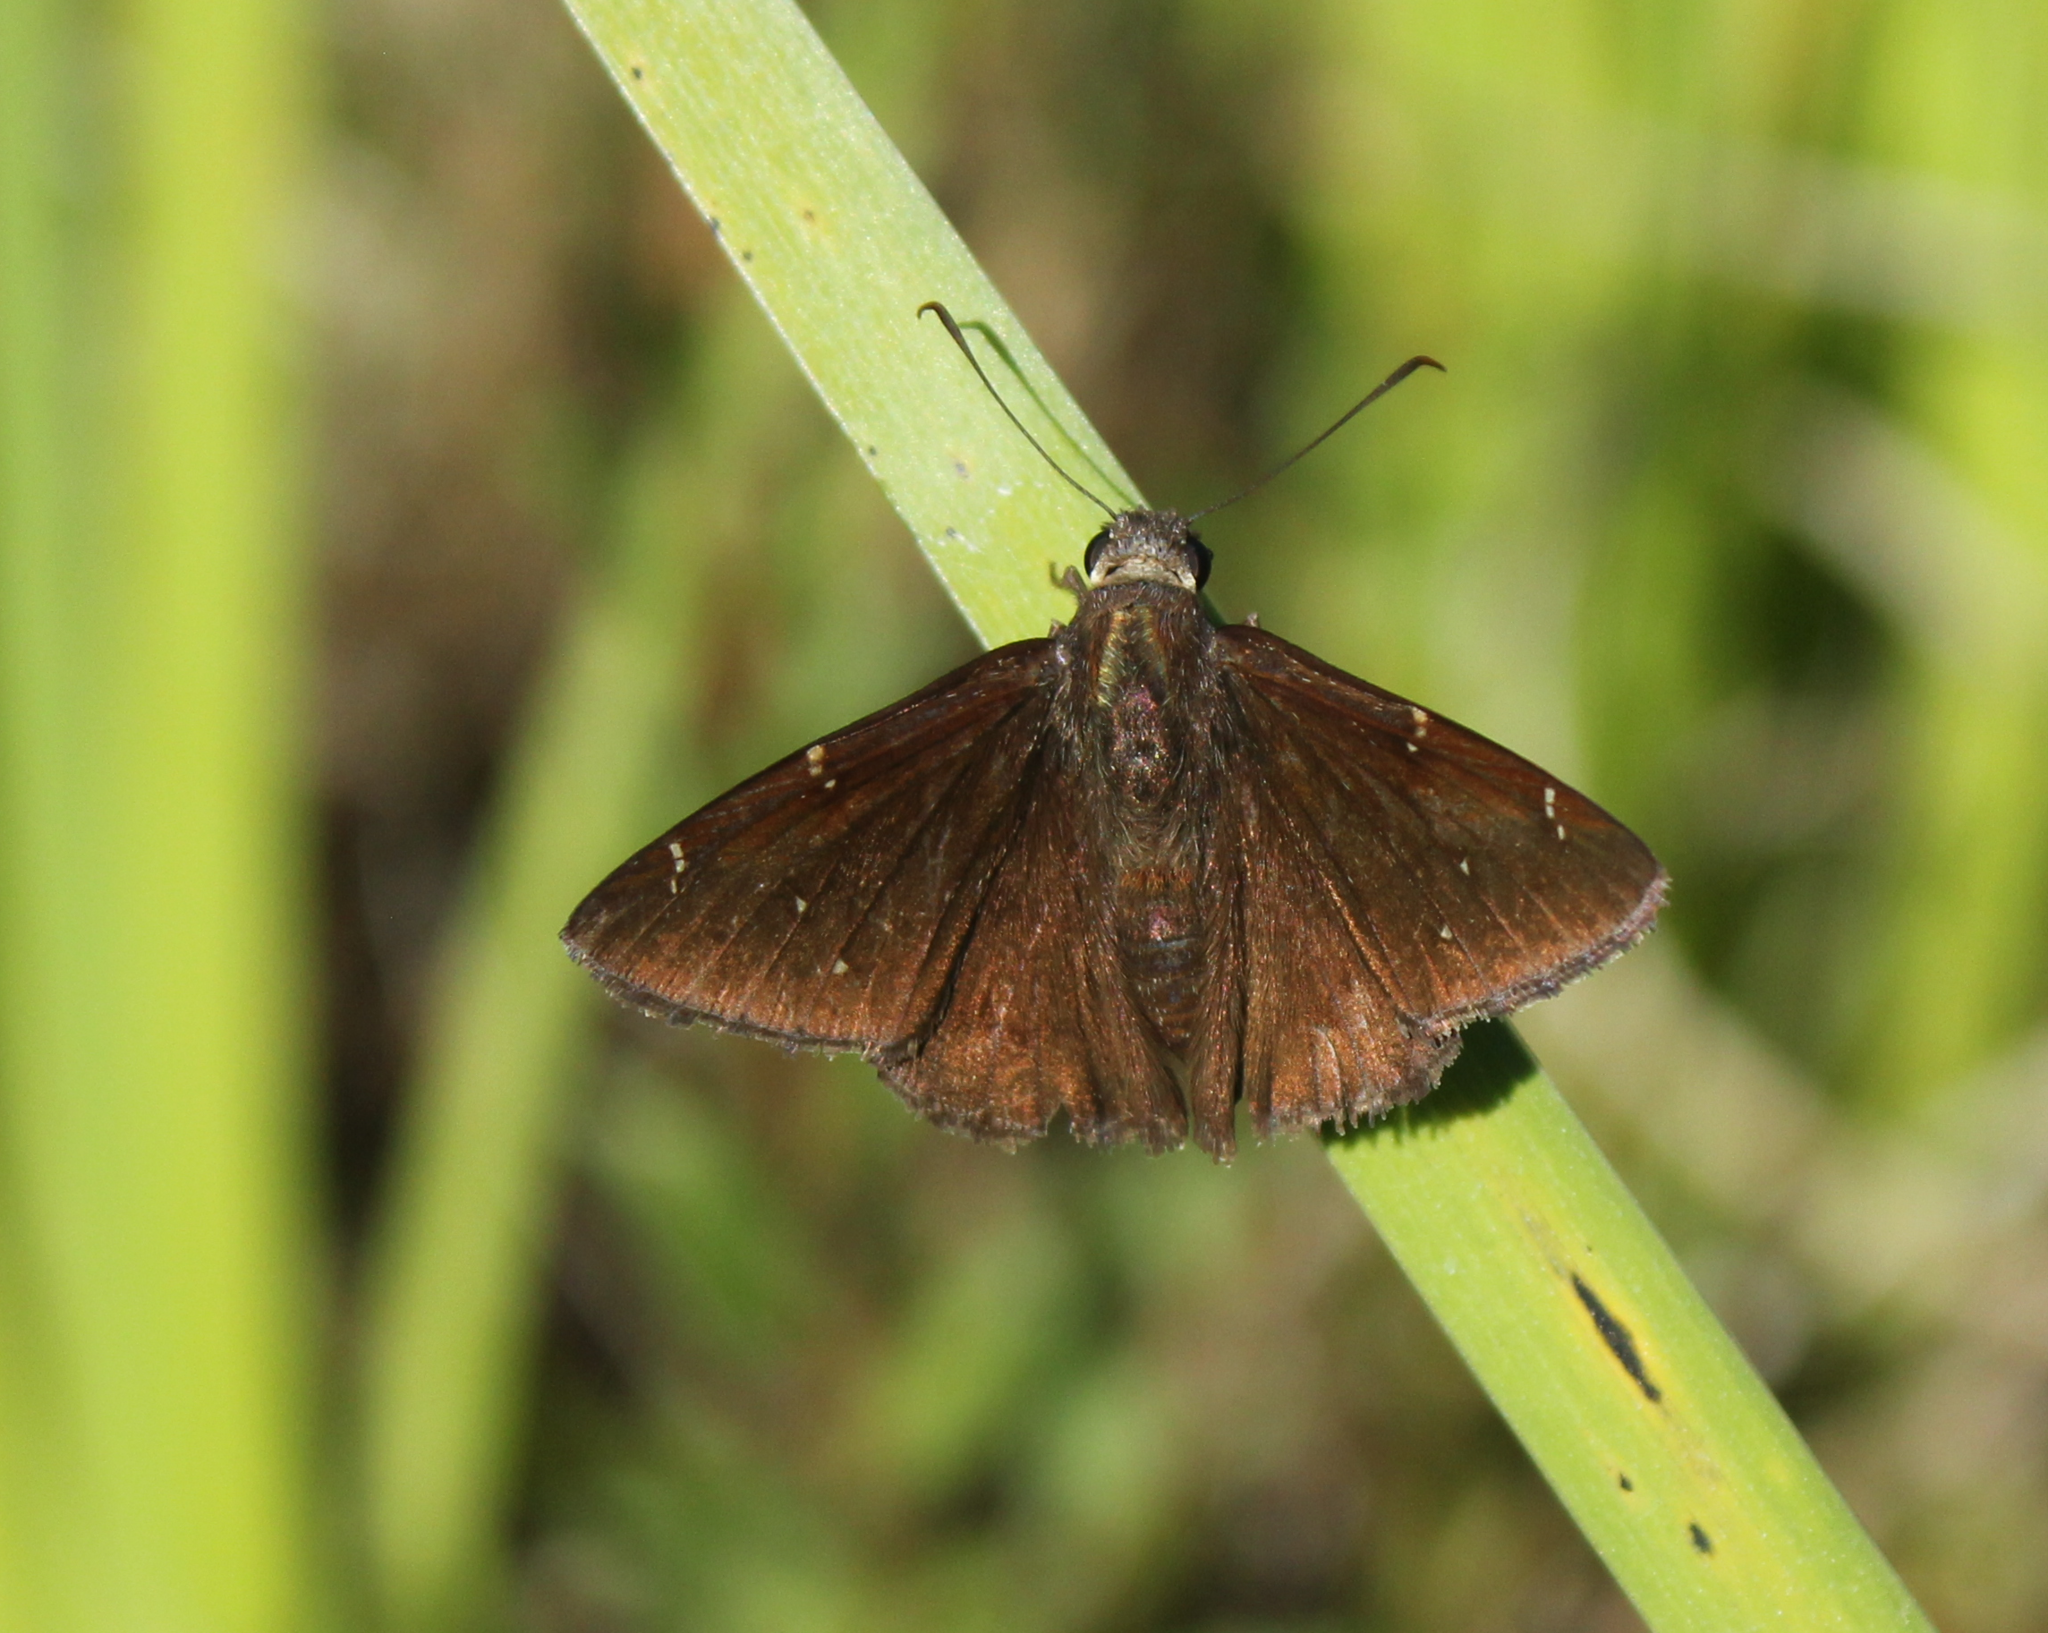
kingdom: Animalia
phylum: Arthropoda
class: Insecta
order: Lepidoptera
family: Hesperiidae
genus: Thorybes
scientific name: Thorybes pylades
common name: Northern cloudywing
